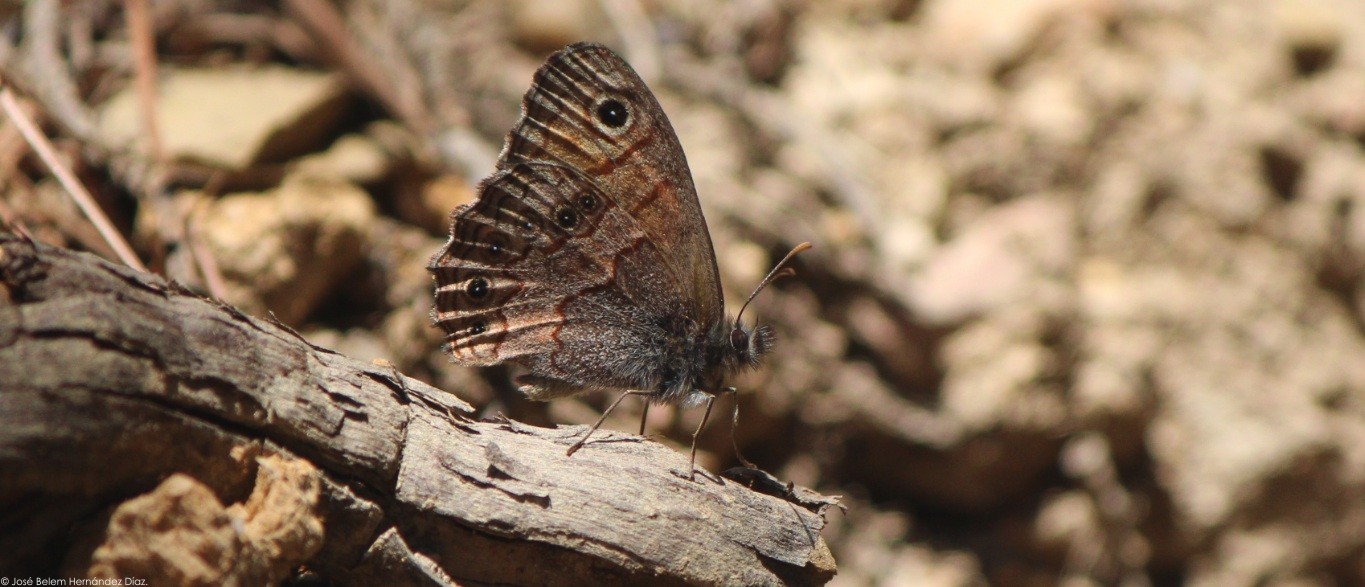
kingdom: Animalia
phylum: Arthropoda
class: Insecta
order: Lepidoptera
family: Nymphalidae
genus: Paramecera
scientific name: Paramecera xicaque
